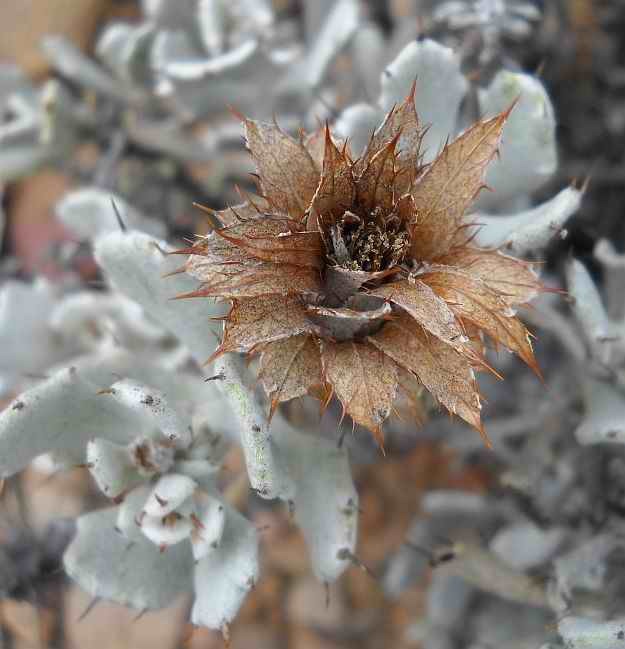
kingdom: Plantae
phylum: Tracheophyta
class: Magnoliopsida
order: Asterales
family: Asteraceae
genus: Berkheya
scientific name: Berkheya cuneata
